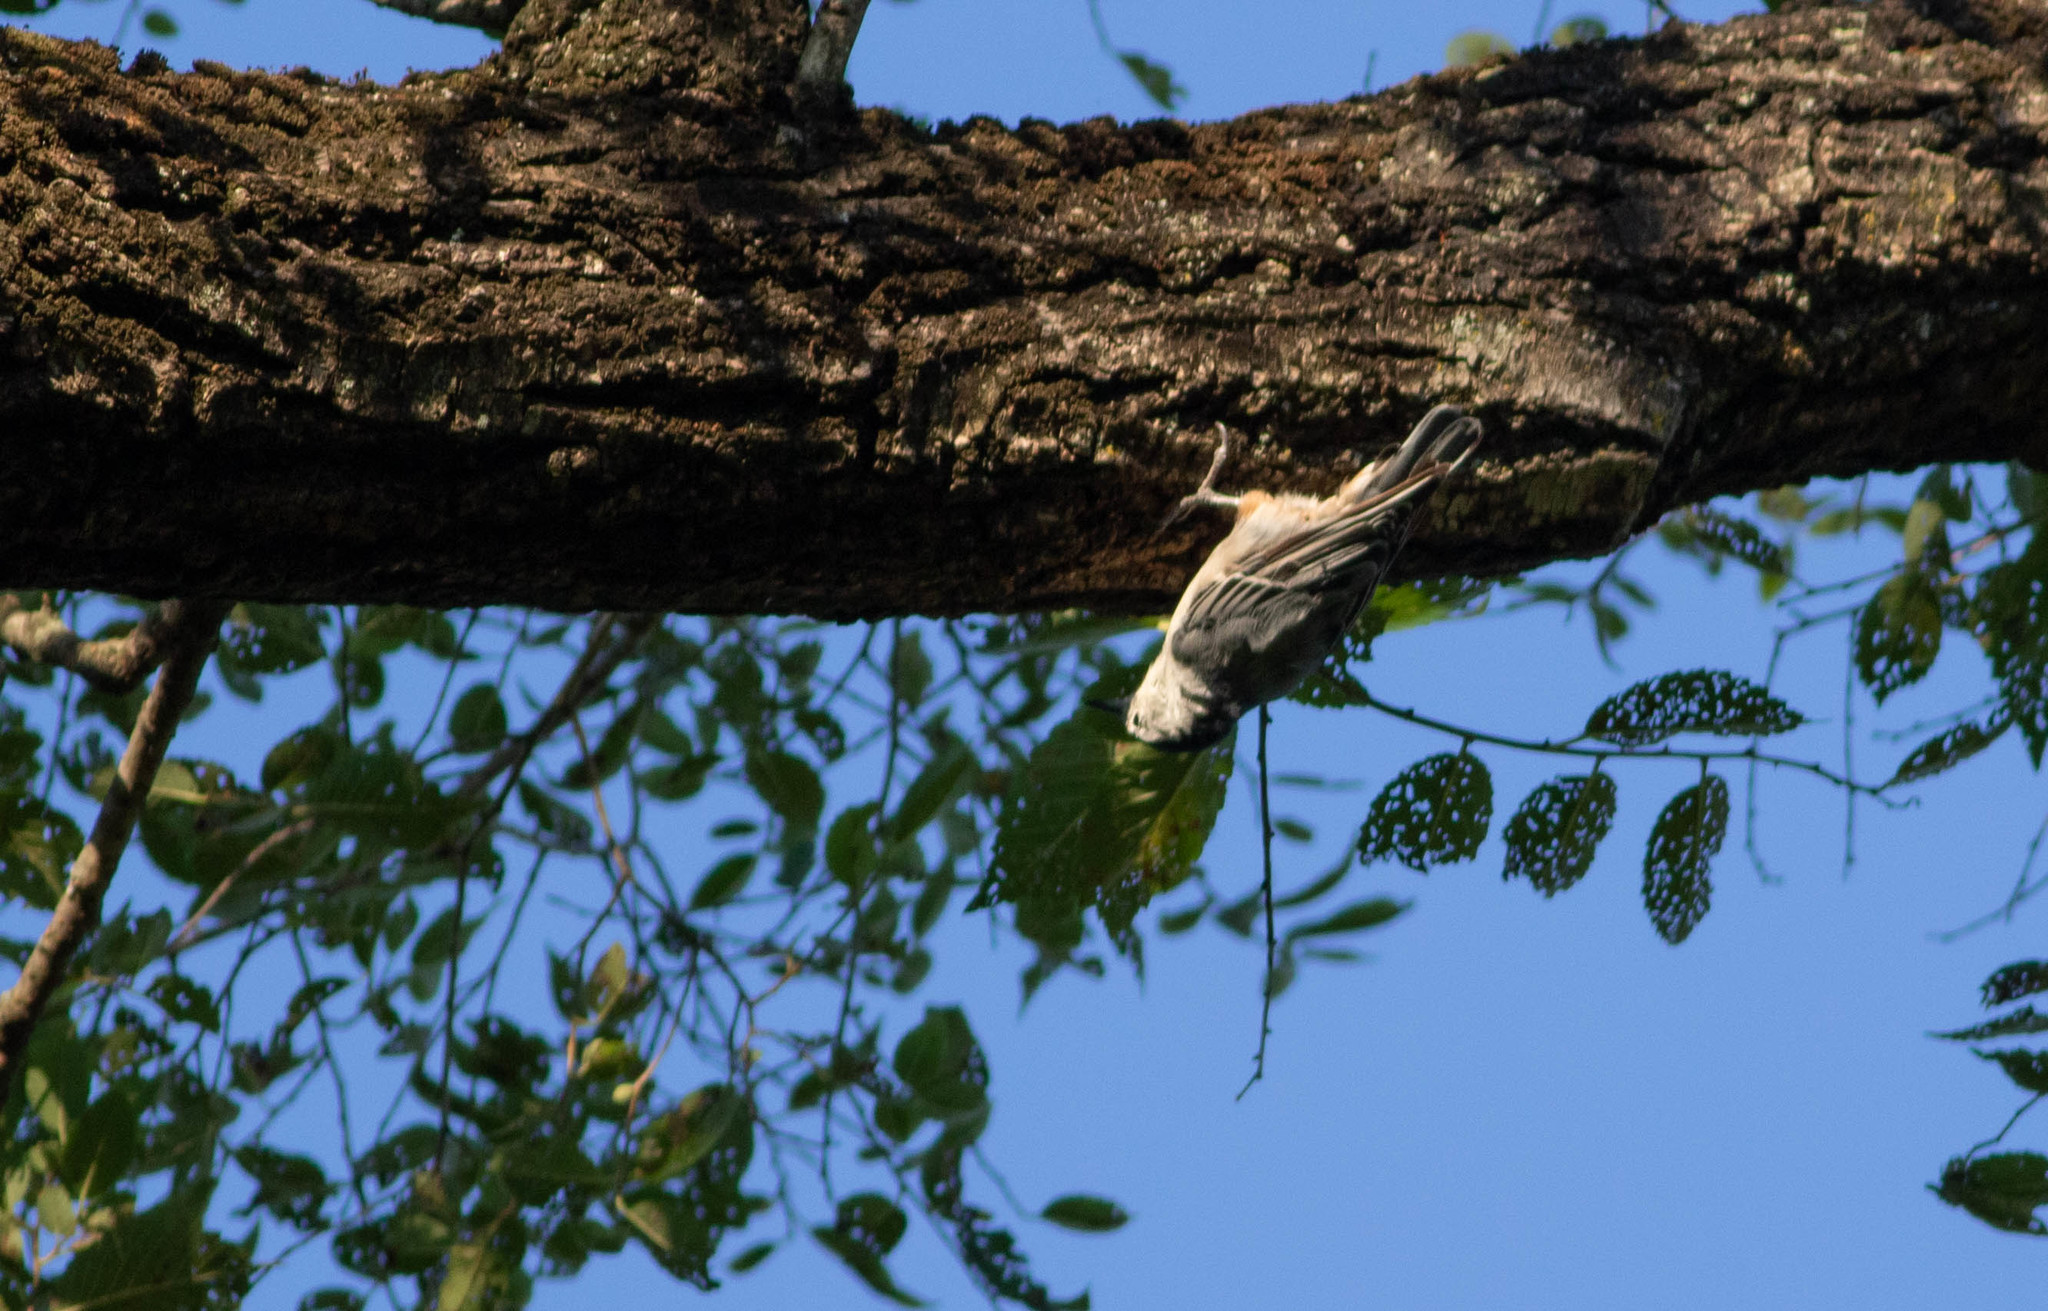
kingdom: Animalia
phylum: Chordata
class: Aves
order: Passeriformes
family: Sittidae
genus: Sitta
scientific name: Sitta carolinensis
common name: White-breasted nuthatch
